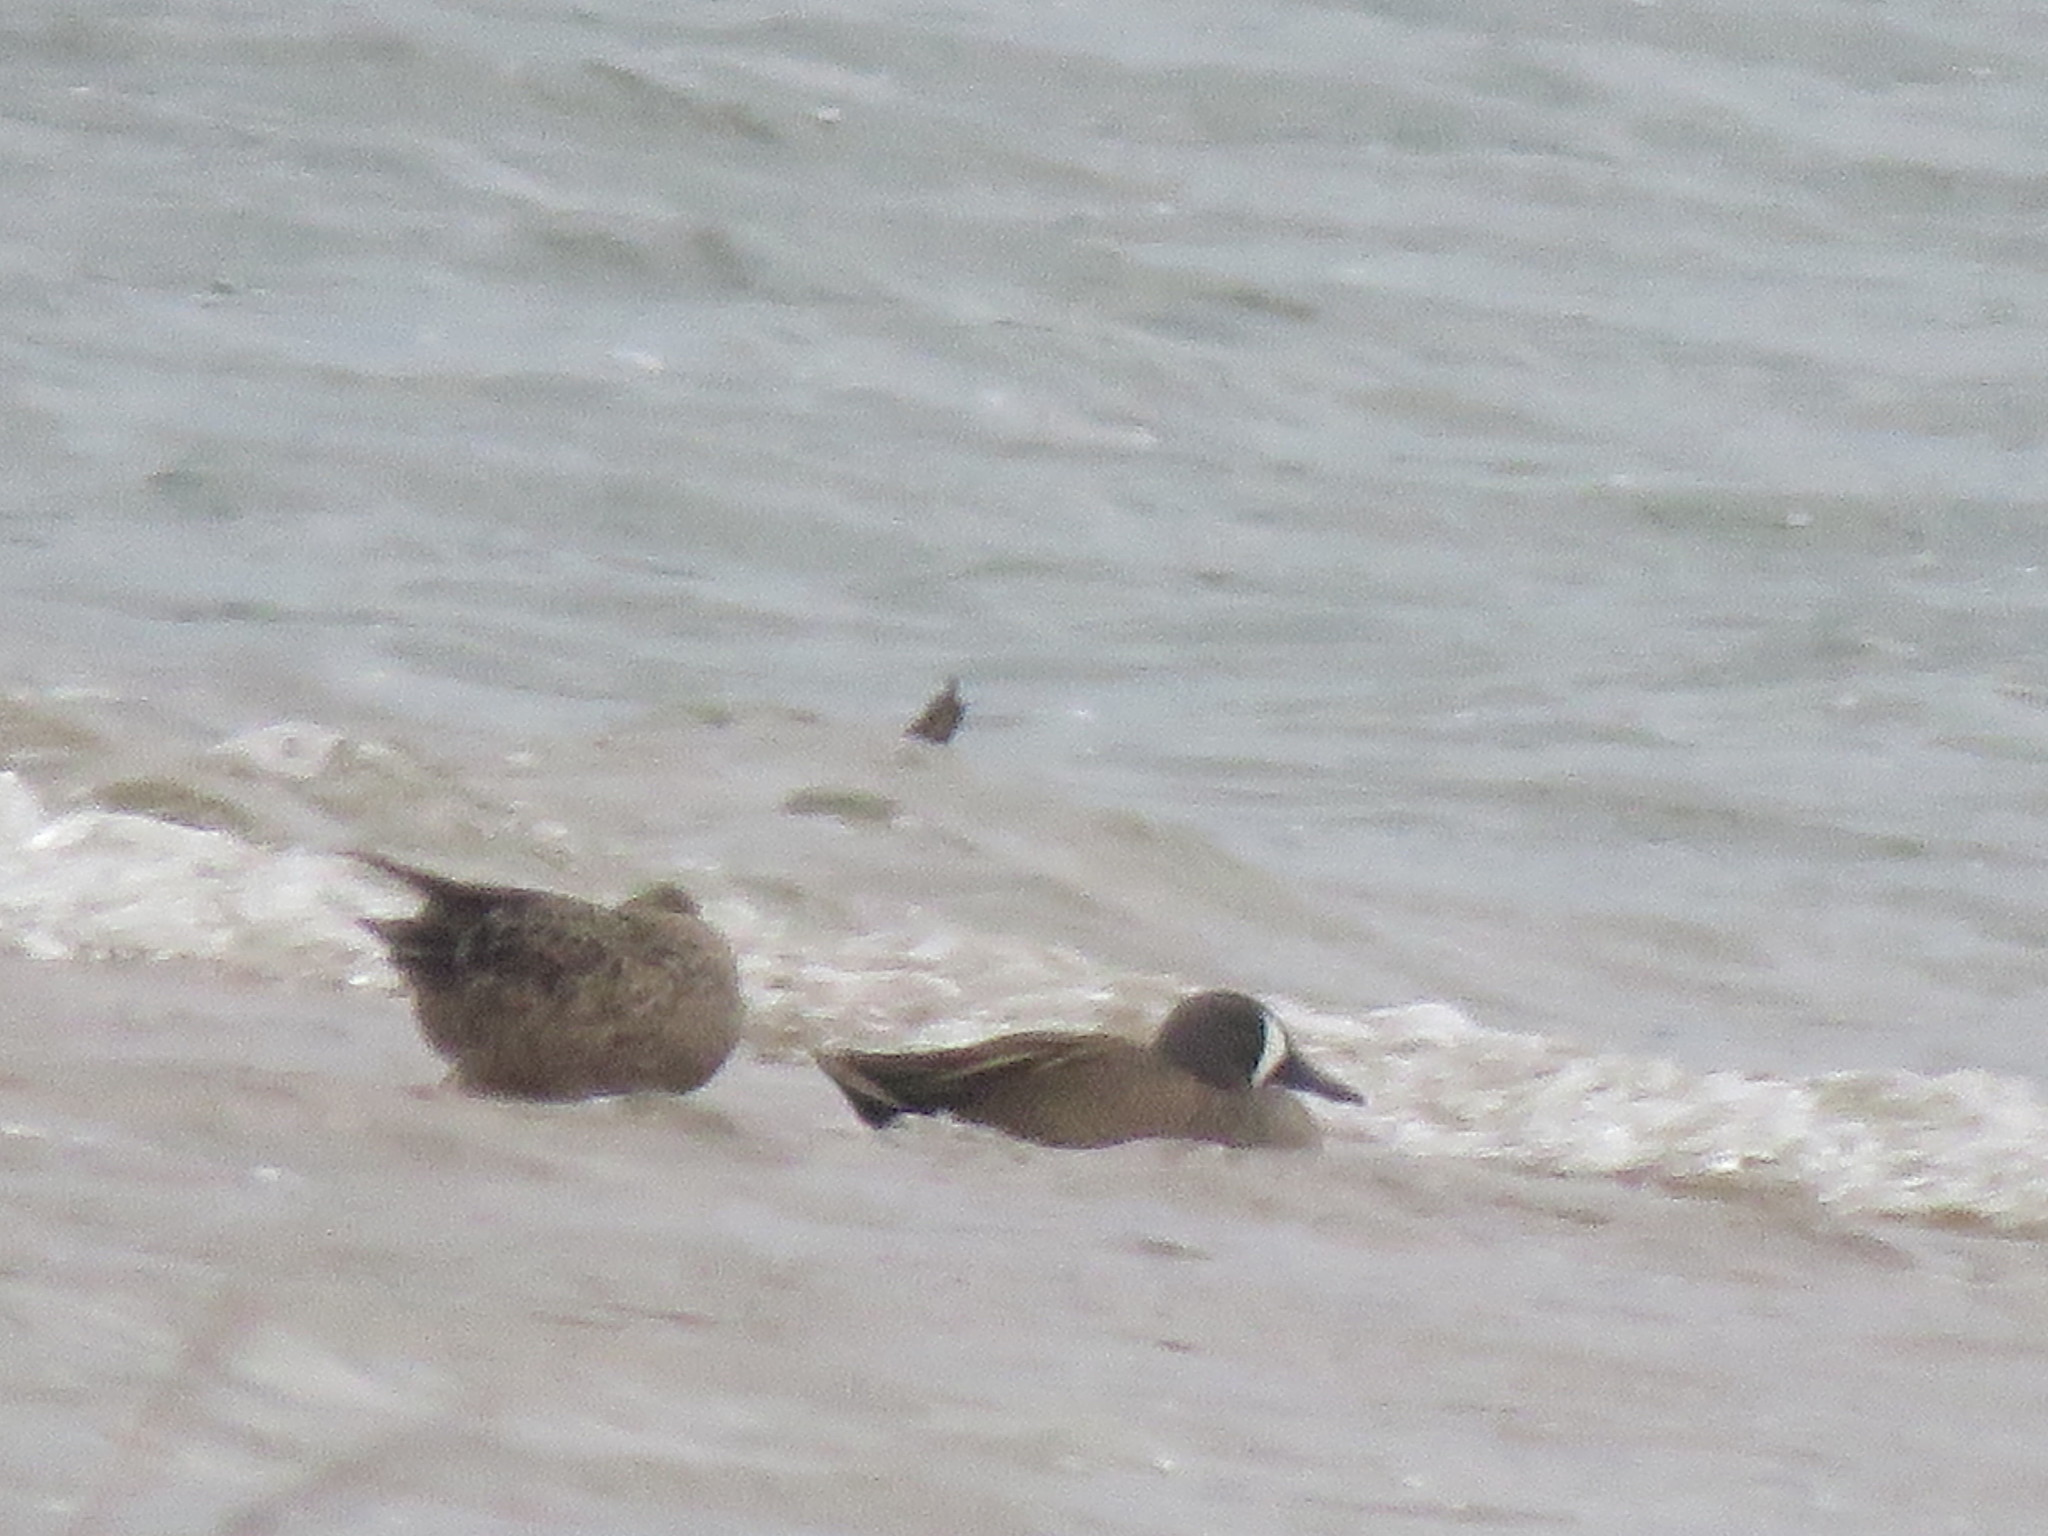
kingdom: Animalia
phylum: Chordata
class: Aves
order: Anseriformes
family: Anatidae
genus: Spatula
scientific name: Spatula discors
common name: Blue-winged teal
